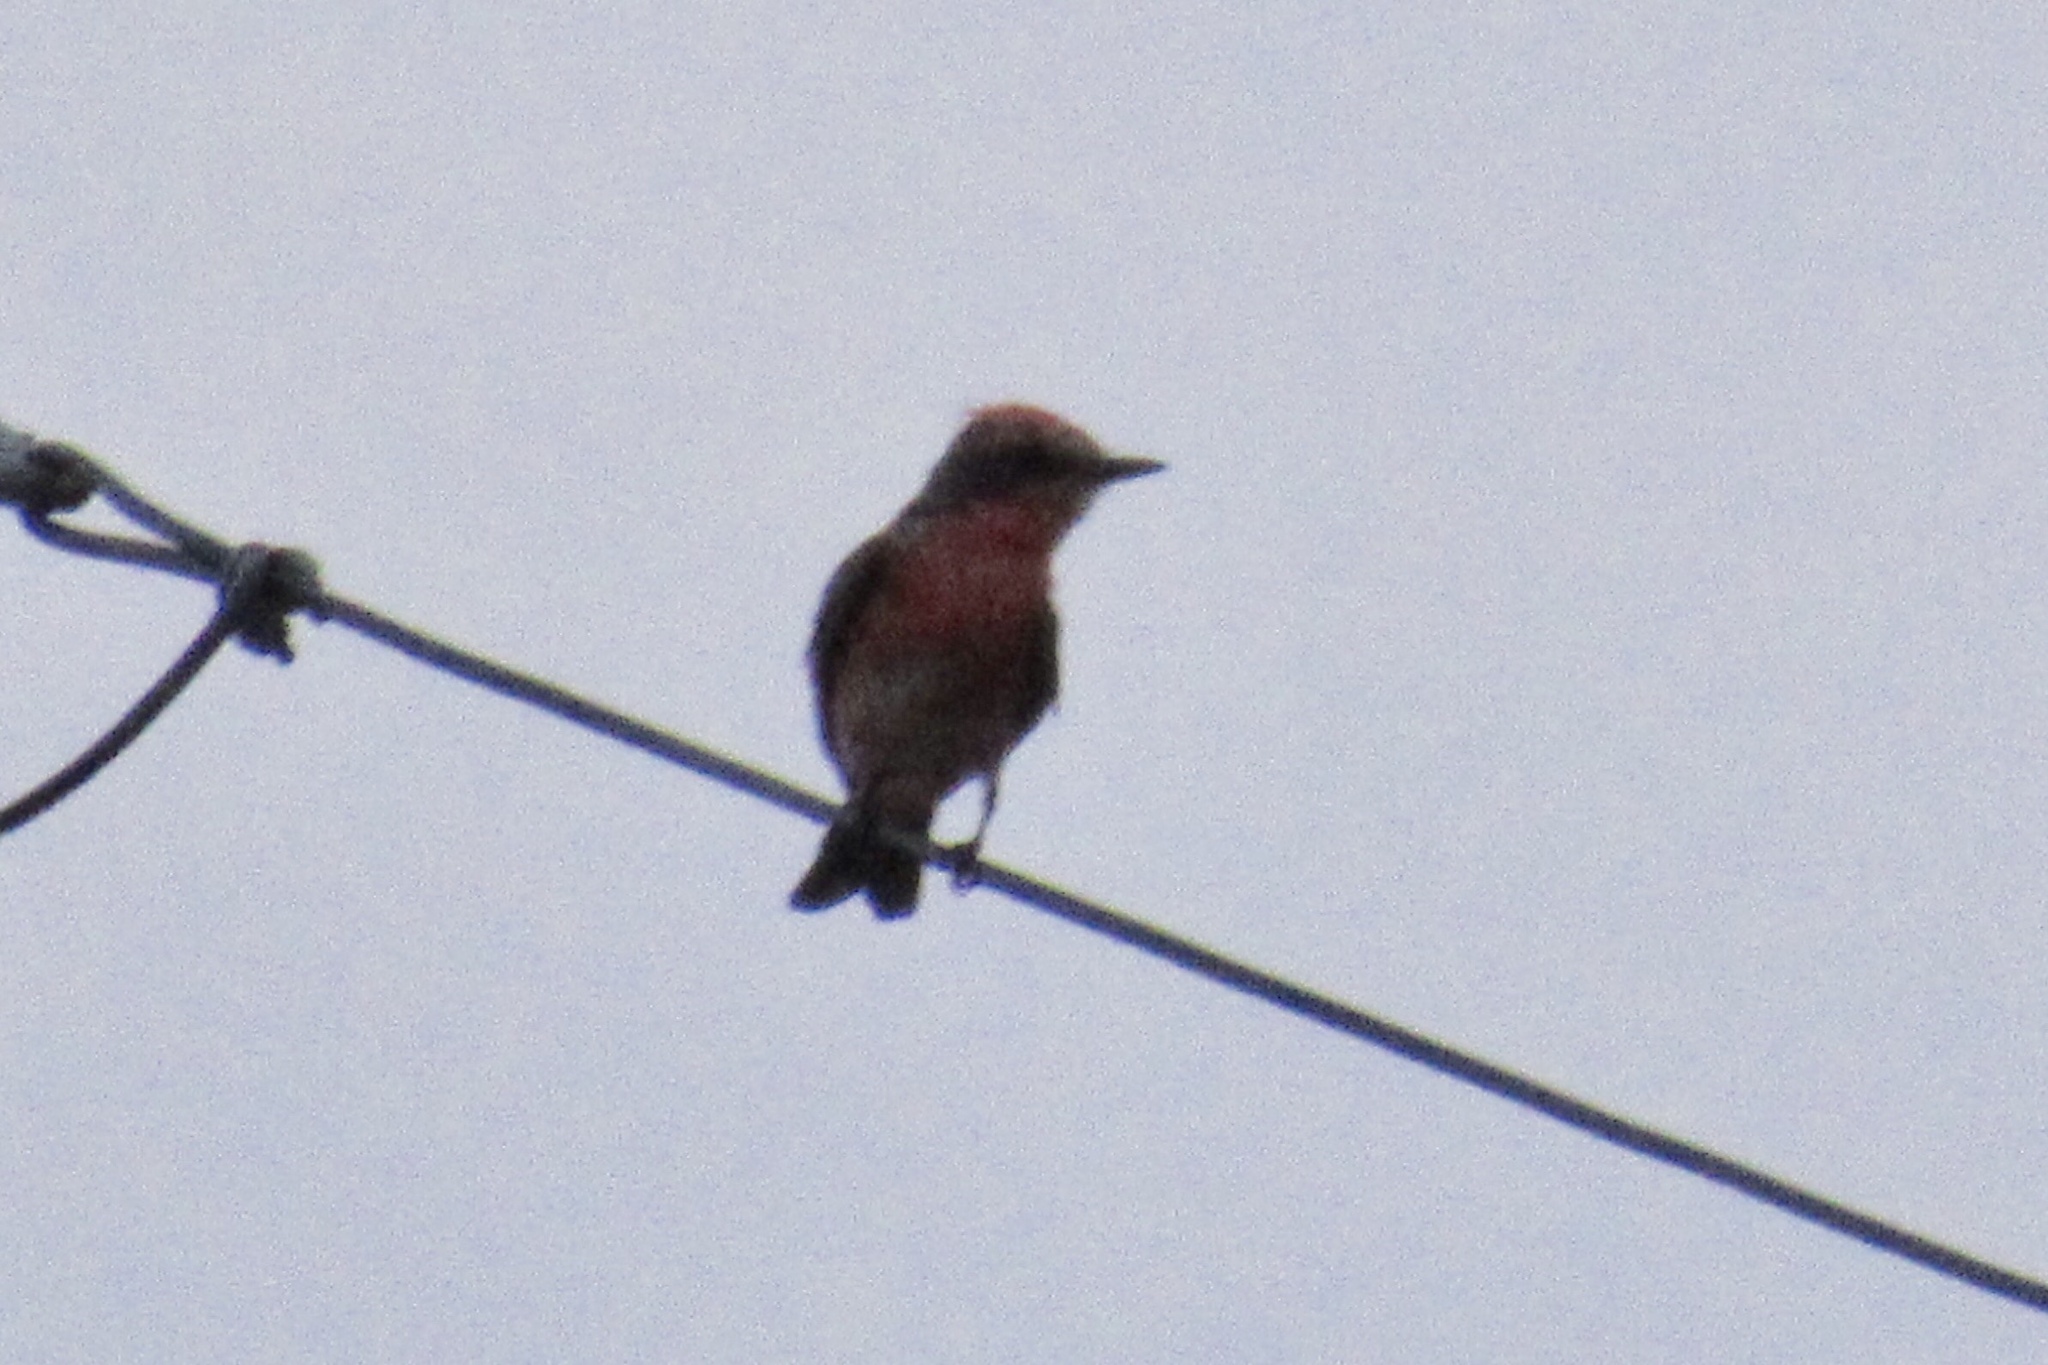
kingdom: Animalia
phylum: Chordata
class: Aves
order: Passeriformes
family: Tyrannidae
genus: Pyrocephalus
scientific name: Pyrocephalus rubinus
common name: Vermilion flycatcher
